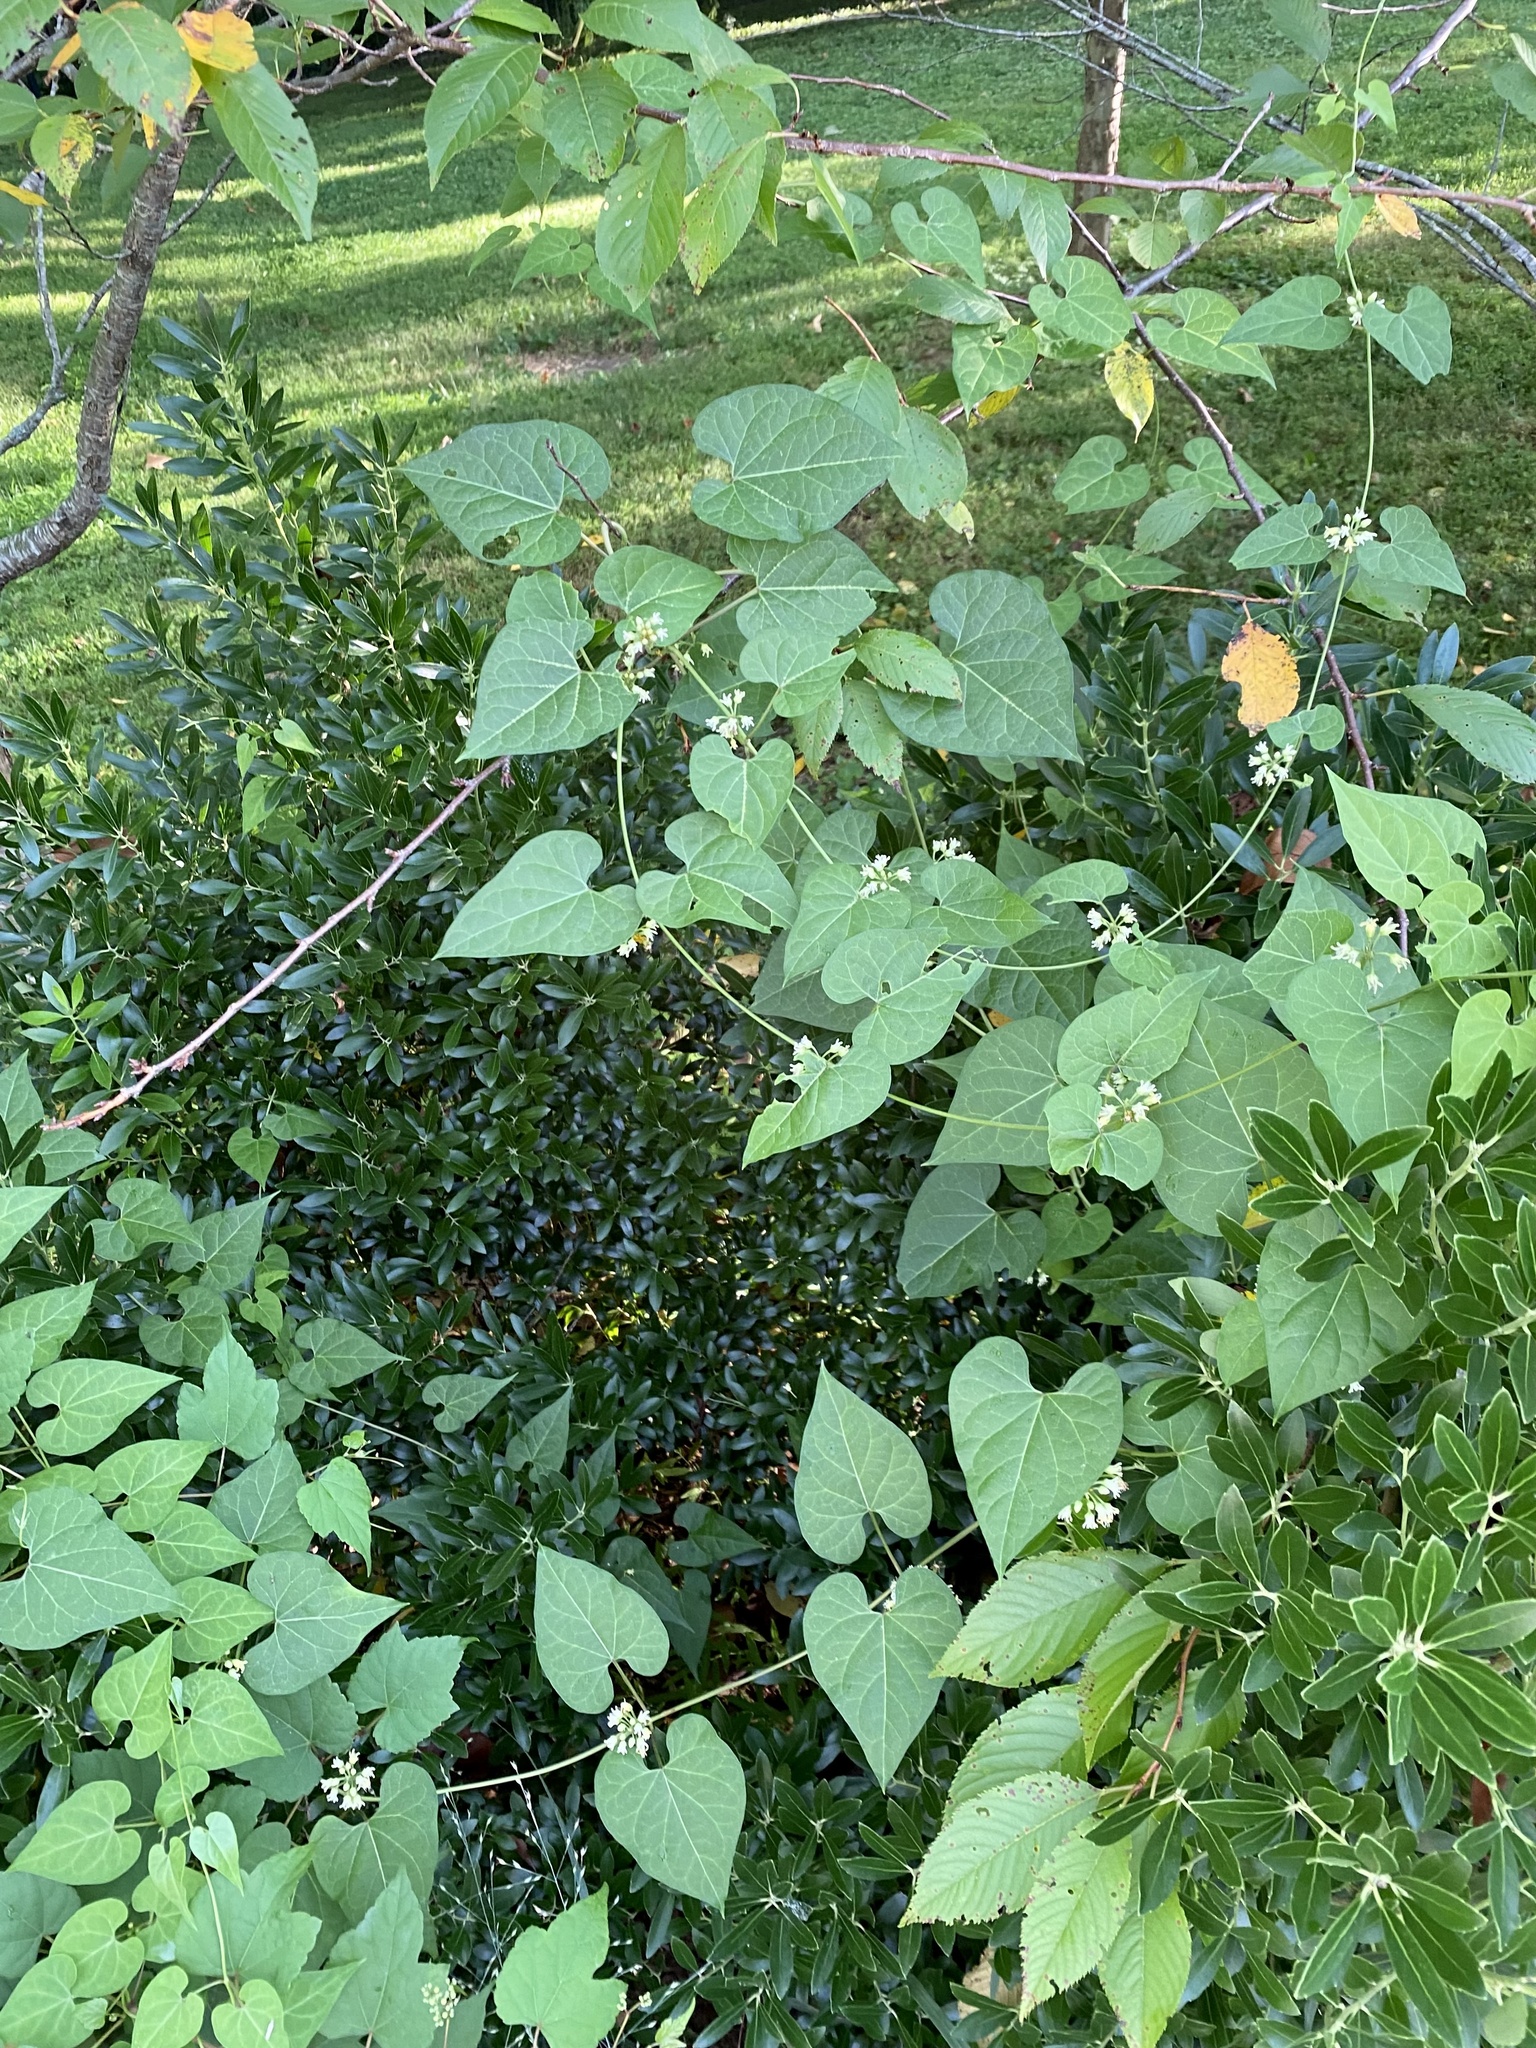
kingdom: Plantae
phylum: Tracheophyta
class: Magnoliopsida
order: Gentianales
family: Apocynaceae
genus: Cynanchum
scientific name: Cynanchum laeve
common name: Sandvine
